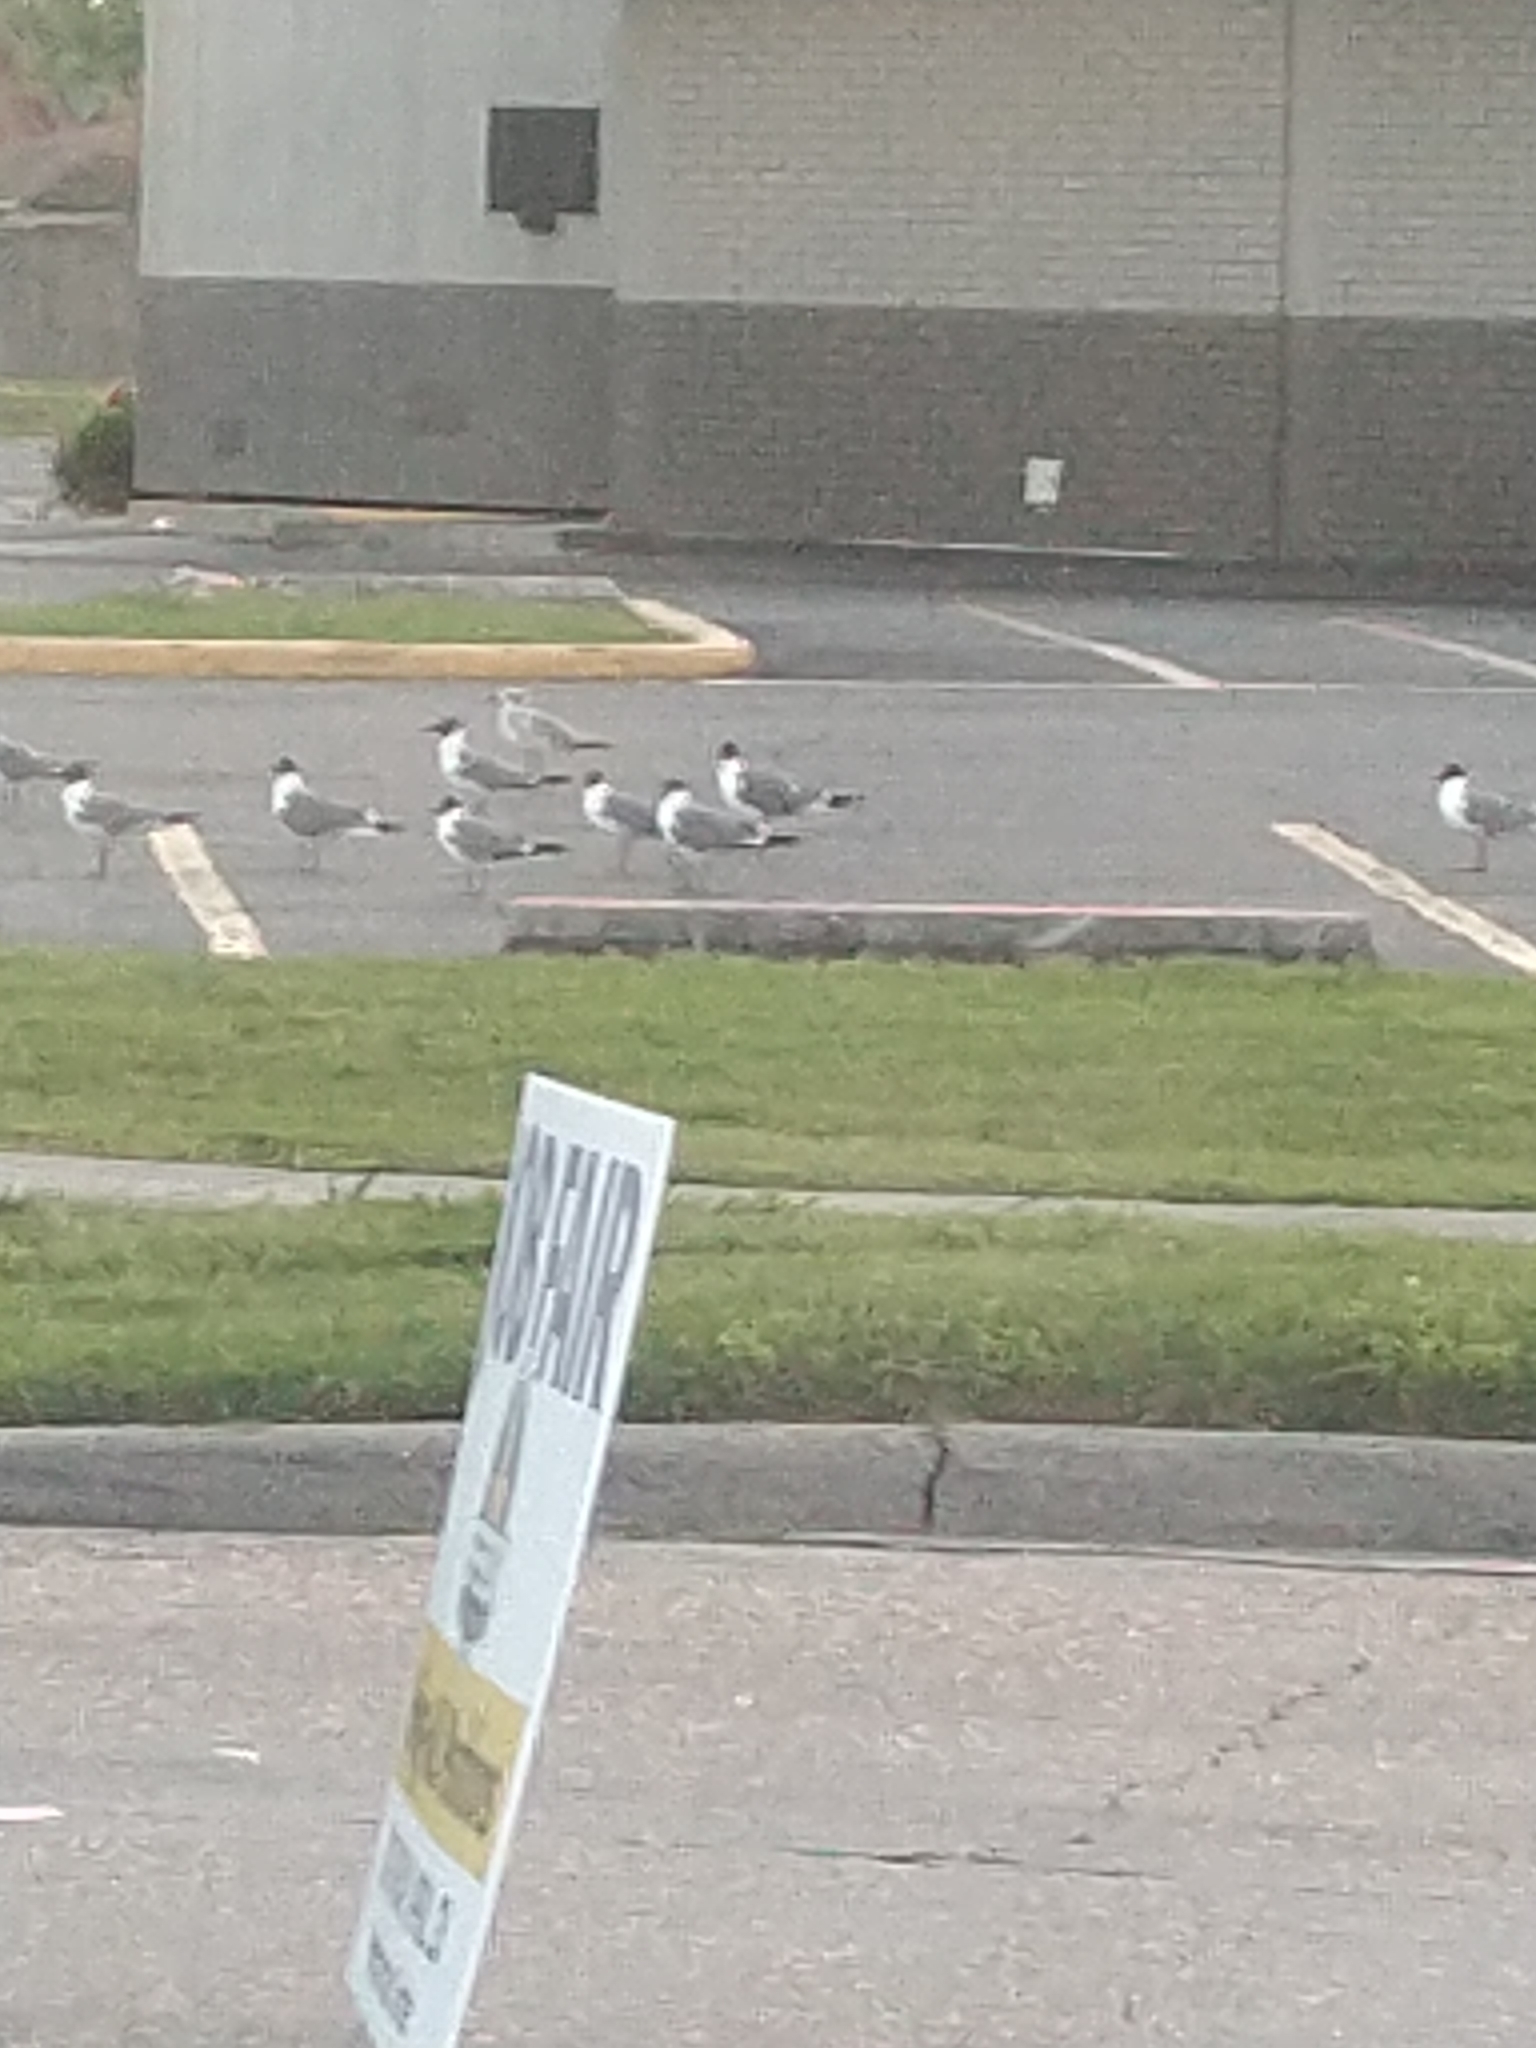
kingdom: Animalia
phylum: Chordata
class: Aves
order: Charadriiformes
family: Laridae
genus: Leucophaeus
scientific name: Leucophaeus atricilla
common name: Laughing gull
